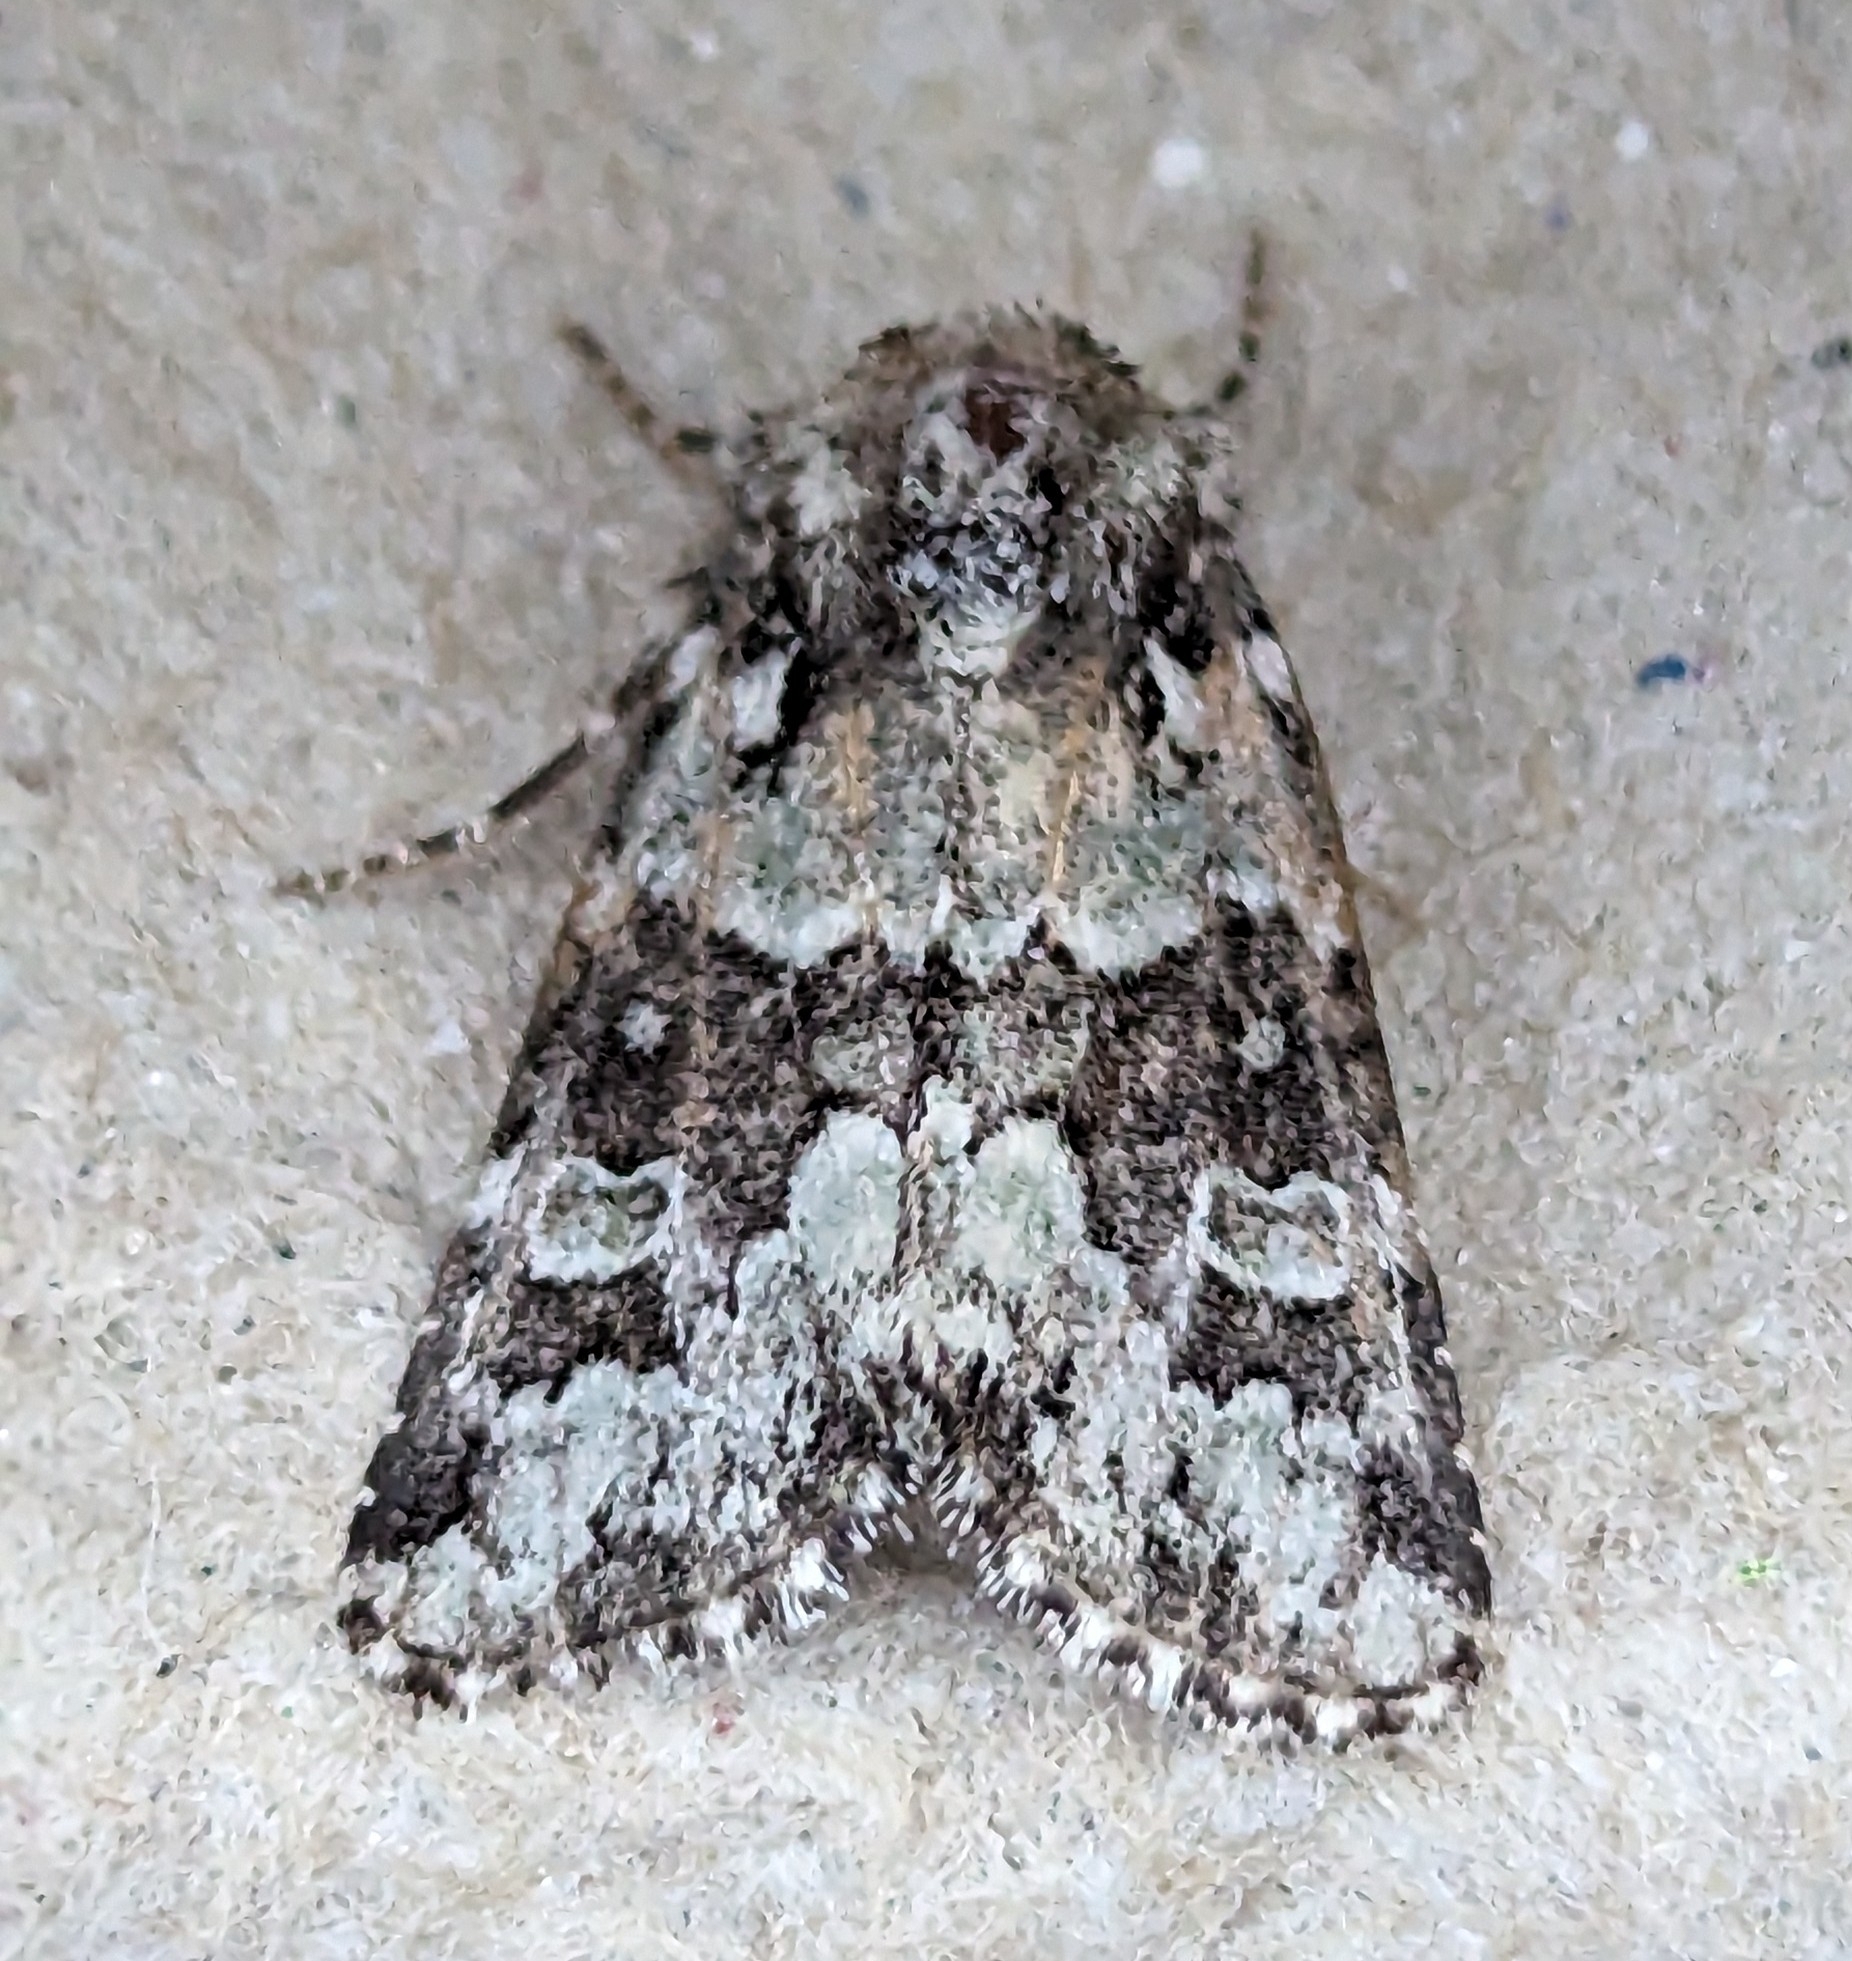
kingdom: Animalia
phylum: Arthropoda
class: Insecta
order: Lepidoptera
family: Noctuidae
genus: Lacinipolia
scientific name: Lacinipolia strigicollis
